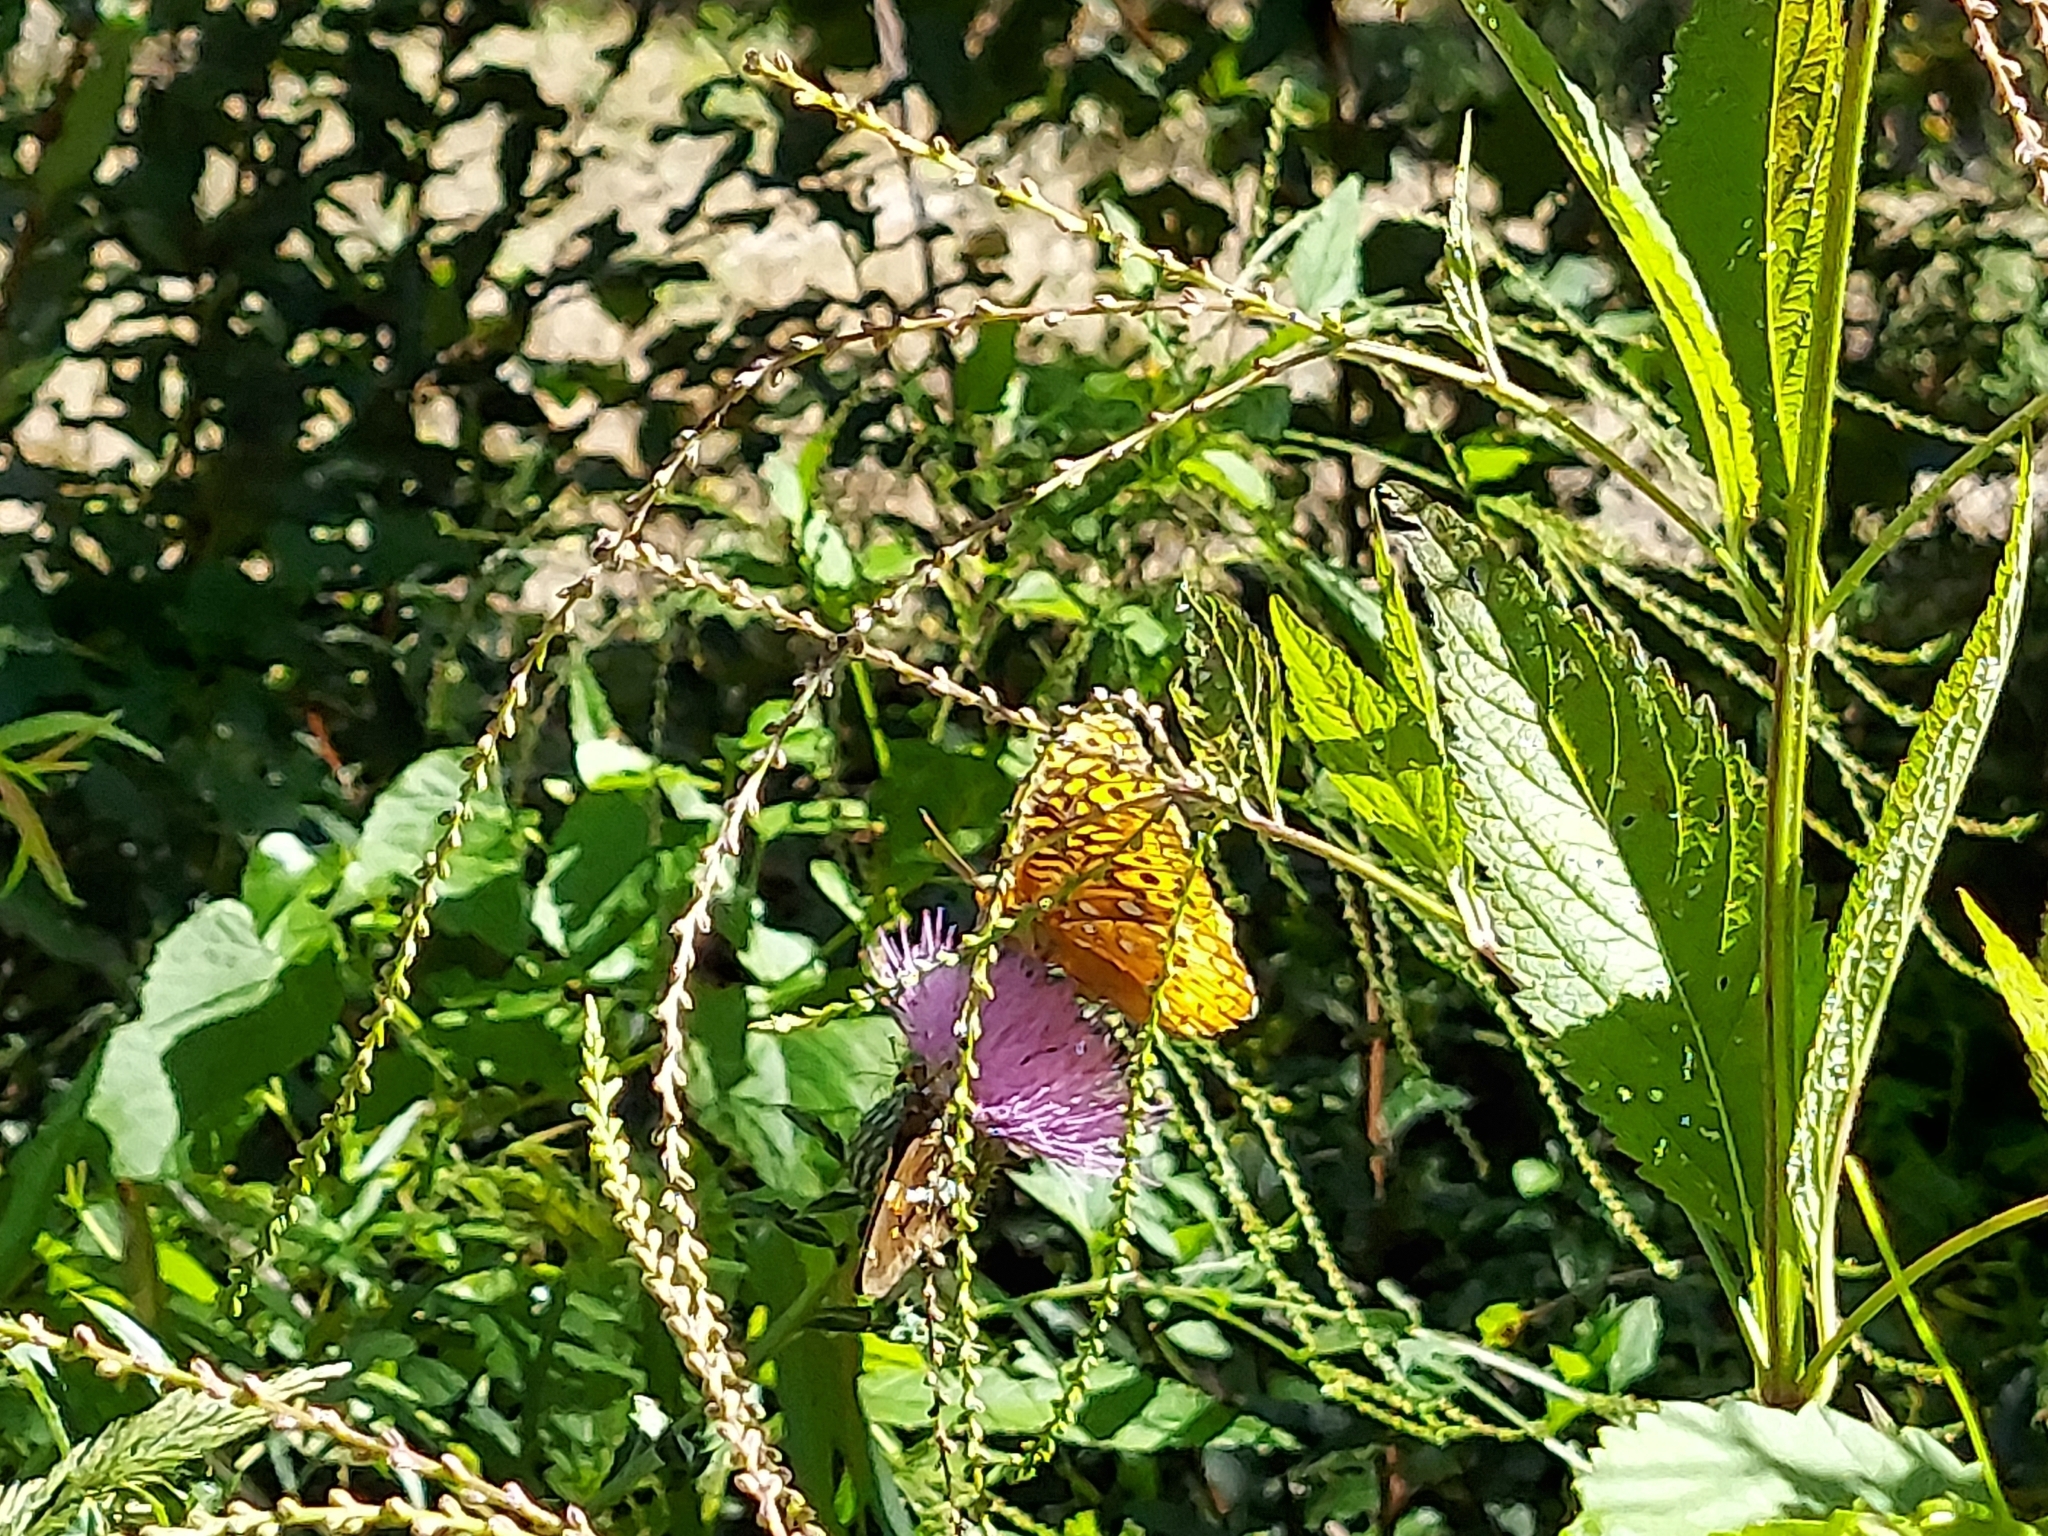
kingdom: Animalia
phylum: Arthropoda
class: Insecta
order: Lepidoptera
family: Nymphalidae
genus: Speyeria
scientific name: Speyeria cybele
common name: Great spangled fritillary
